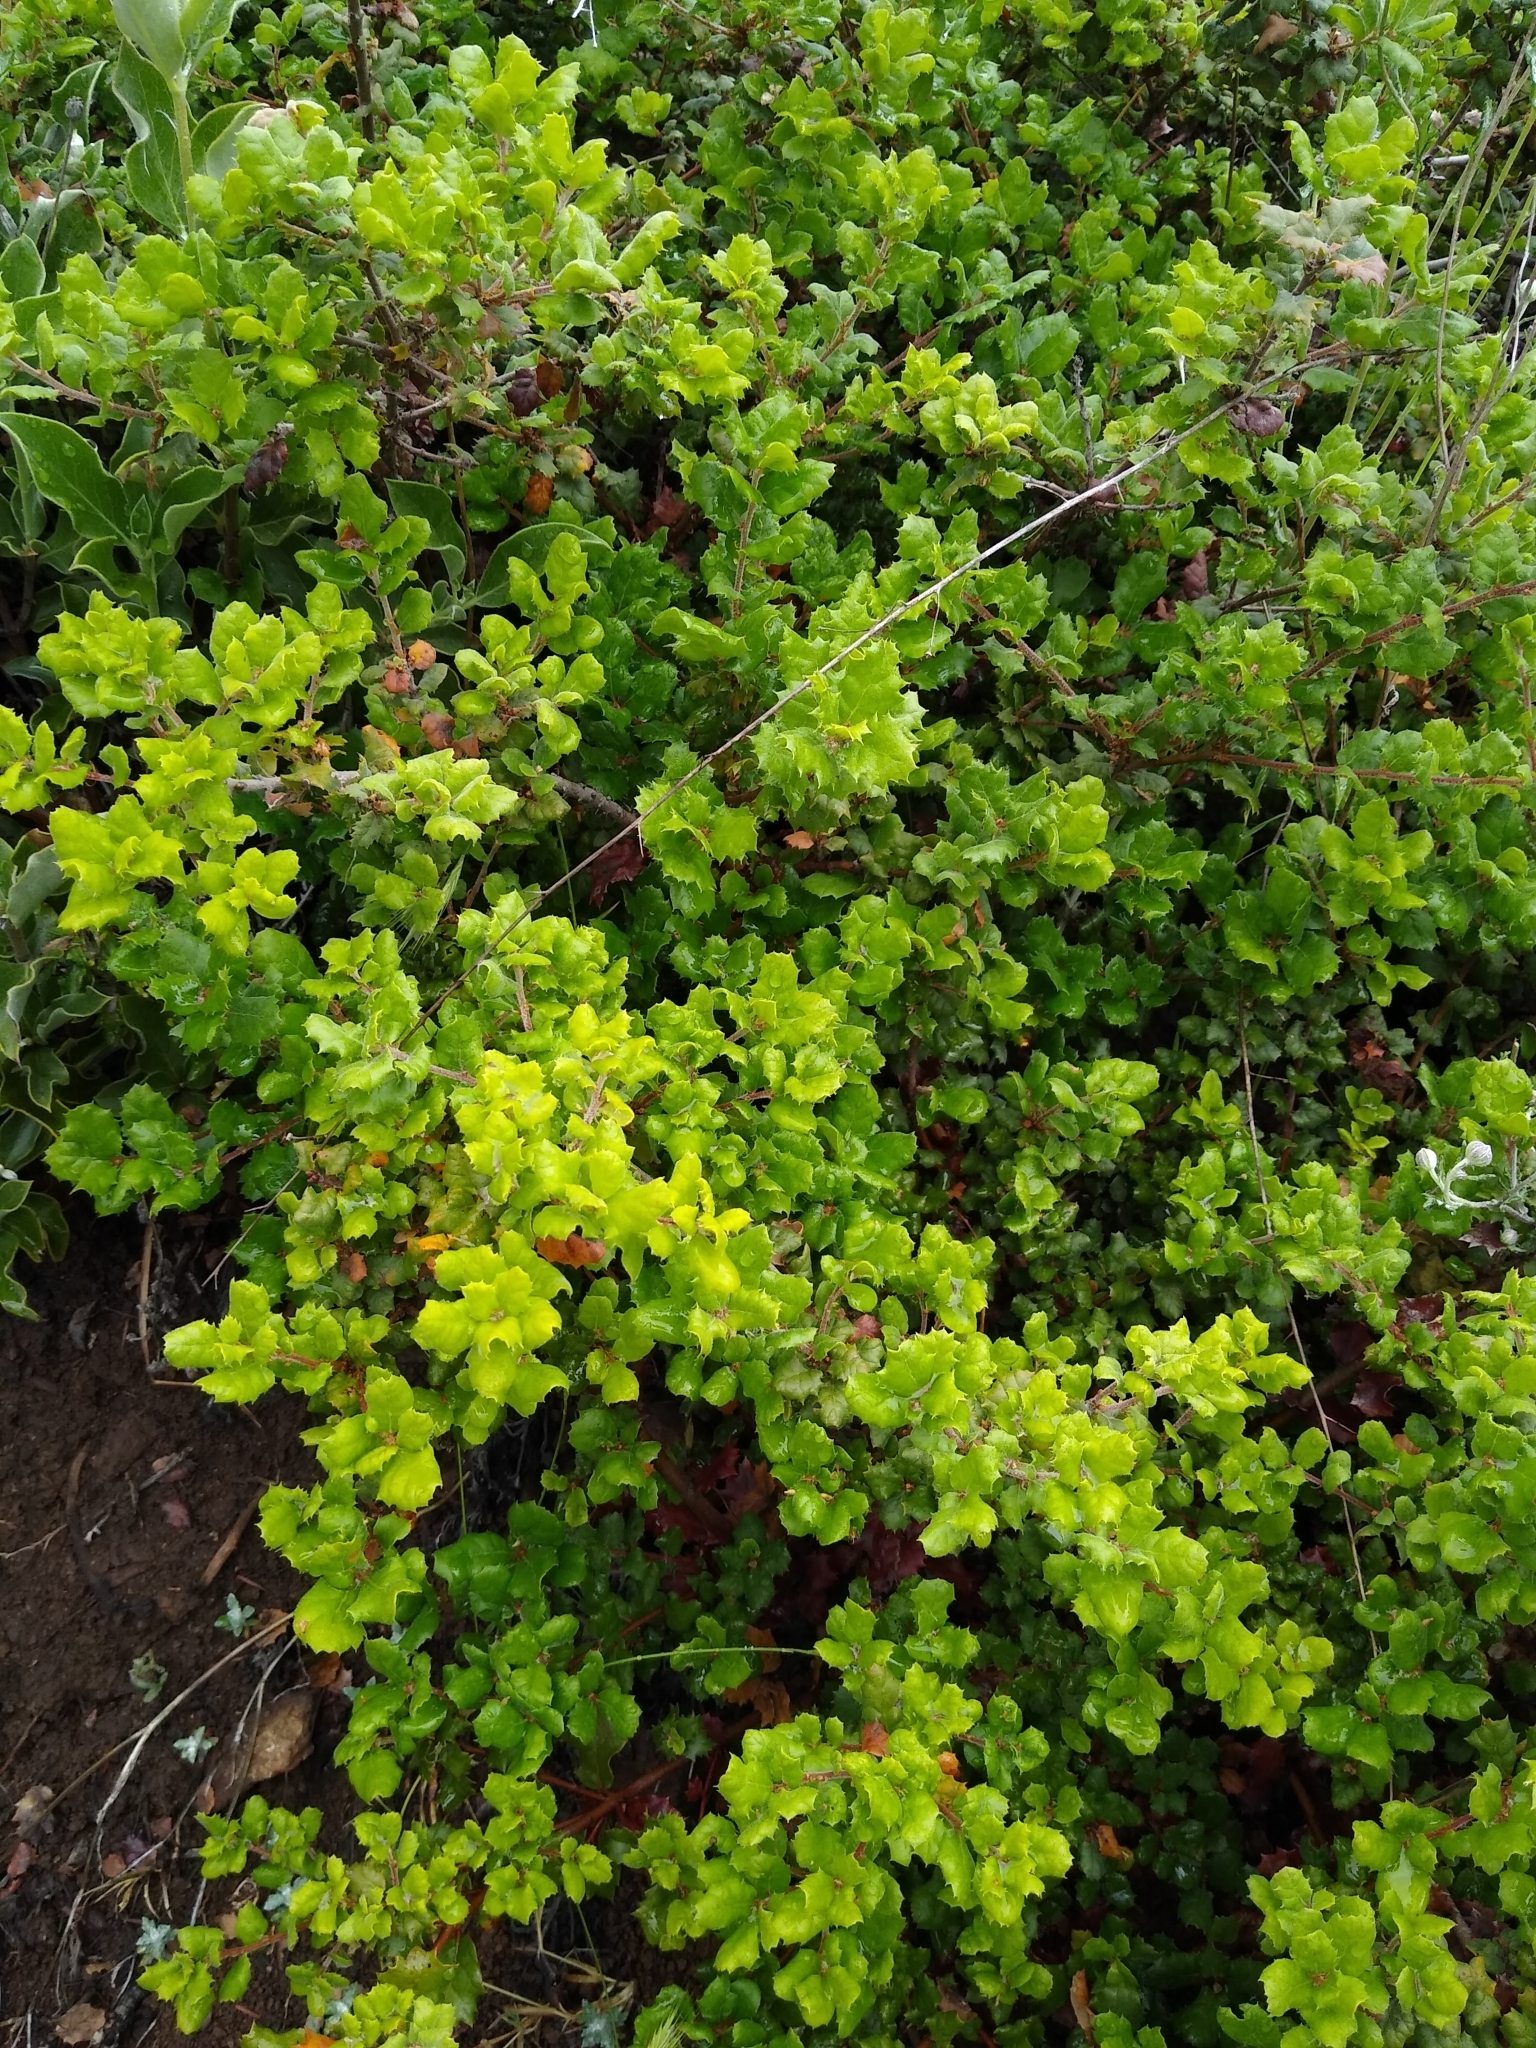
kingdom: Plantae
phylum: Tracheophyta
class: Magnoliopsida
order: Fagales
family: Fagaceae
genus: Quercus
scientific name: Quercus
